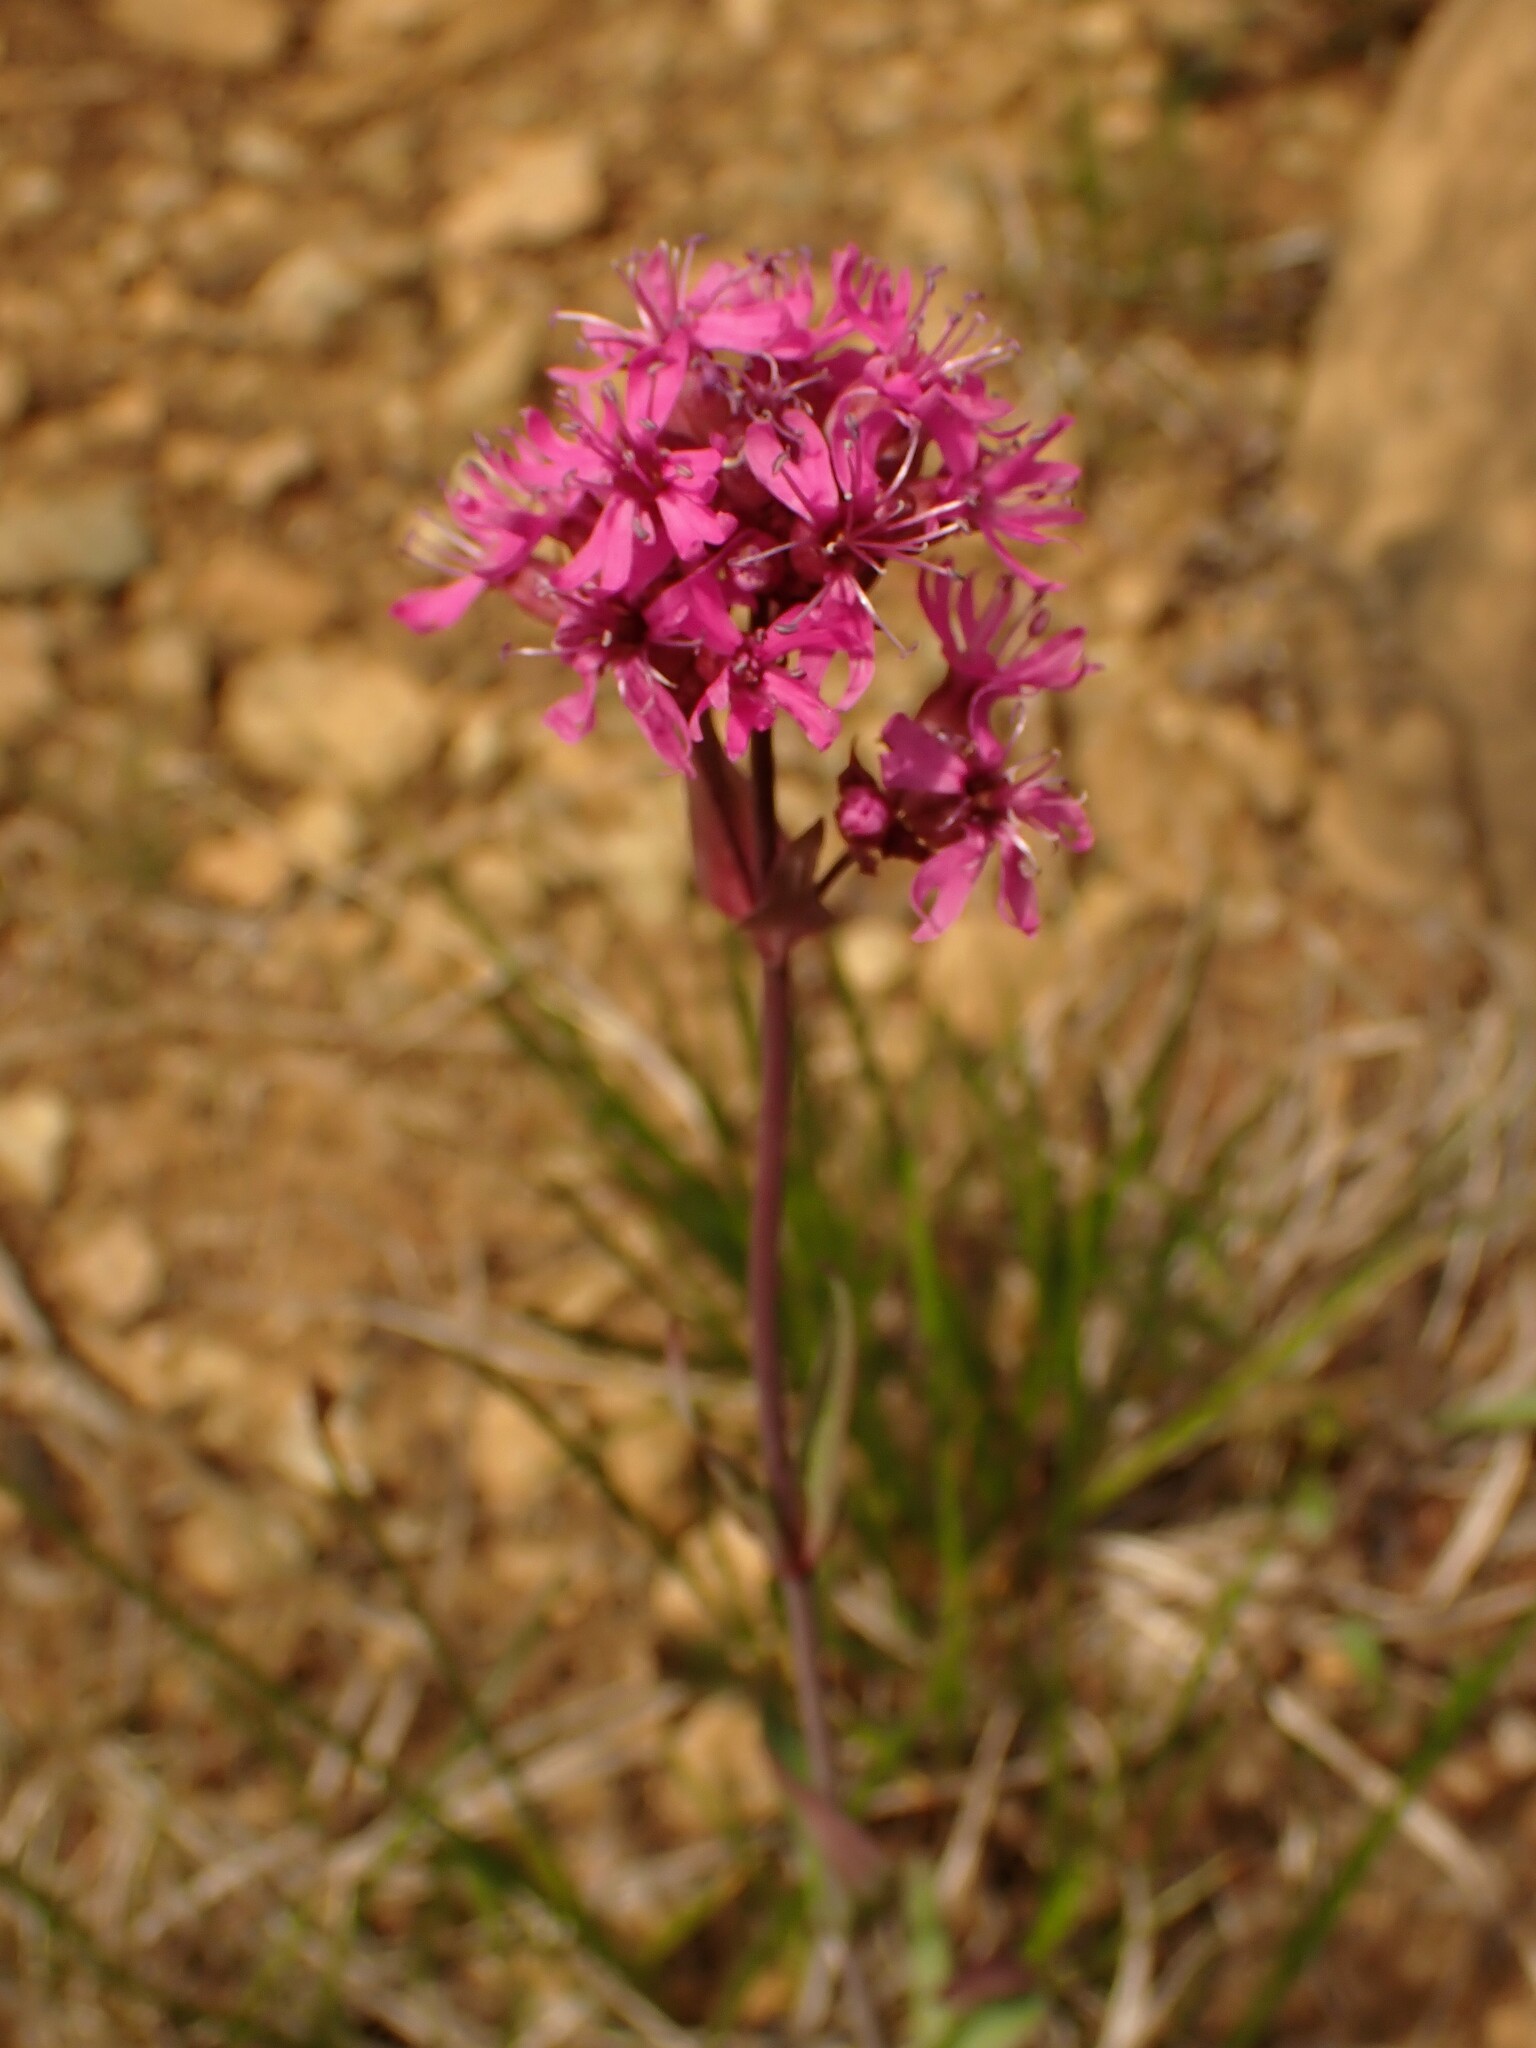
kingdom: Plantae
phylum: Tracheophyta
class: Magnoliopsida
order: Caryophyllales
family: Caryophyllaceae
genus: Viscaria
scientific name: Viscaria alpina
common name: Alpine campion
